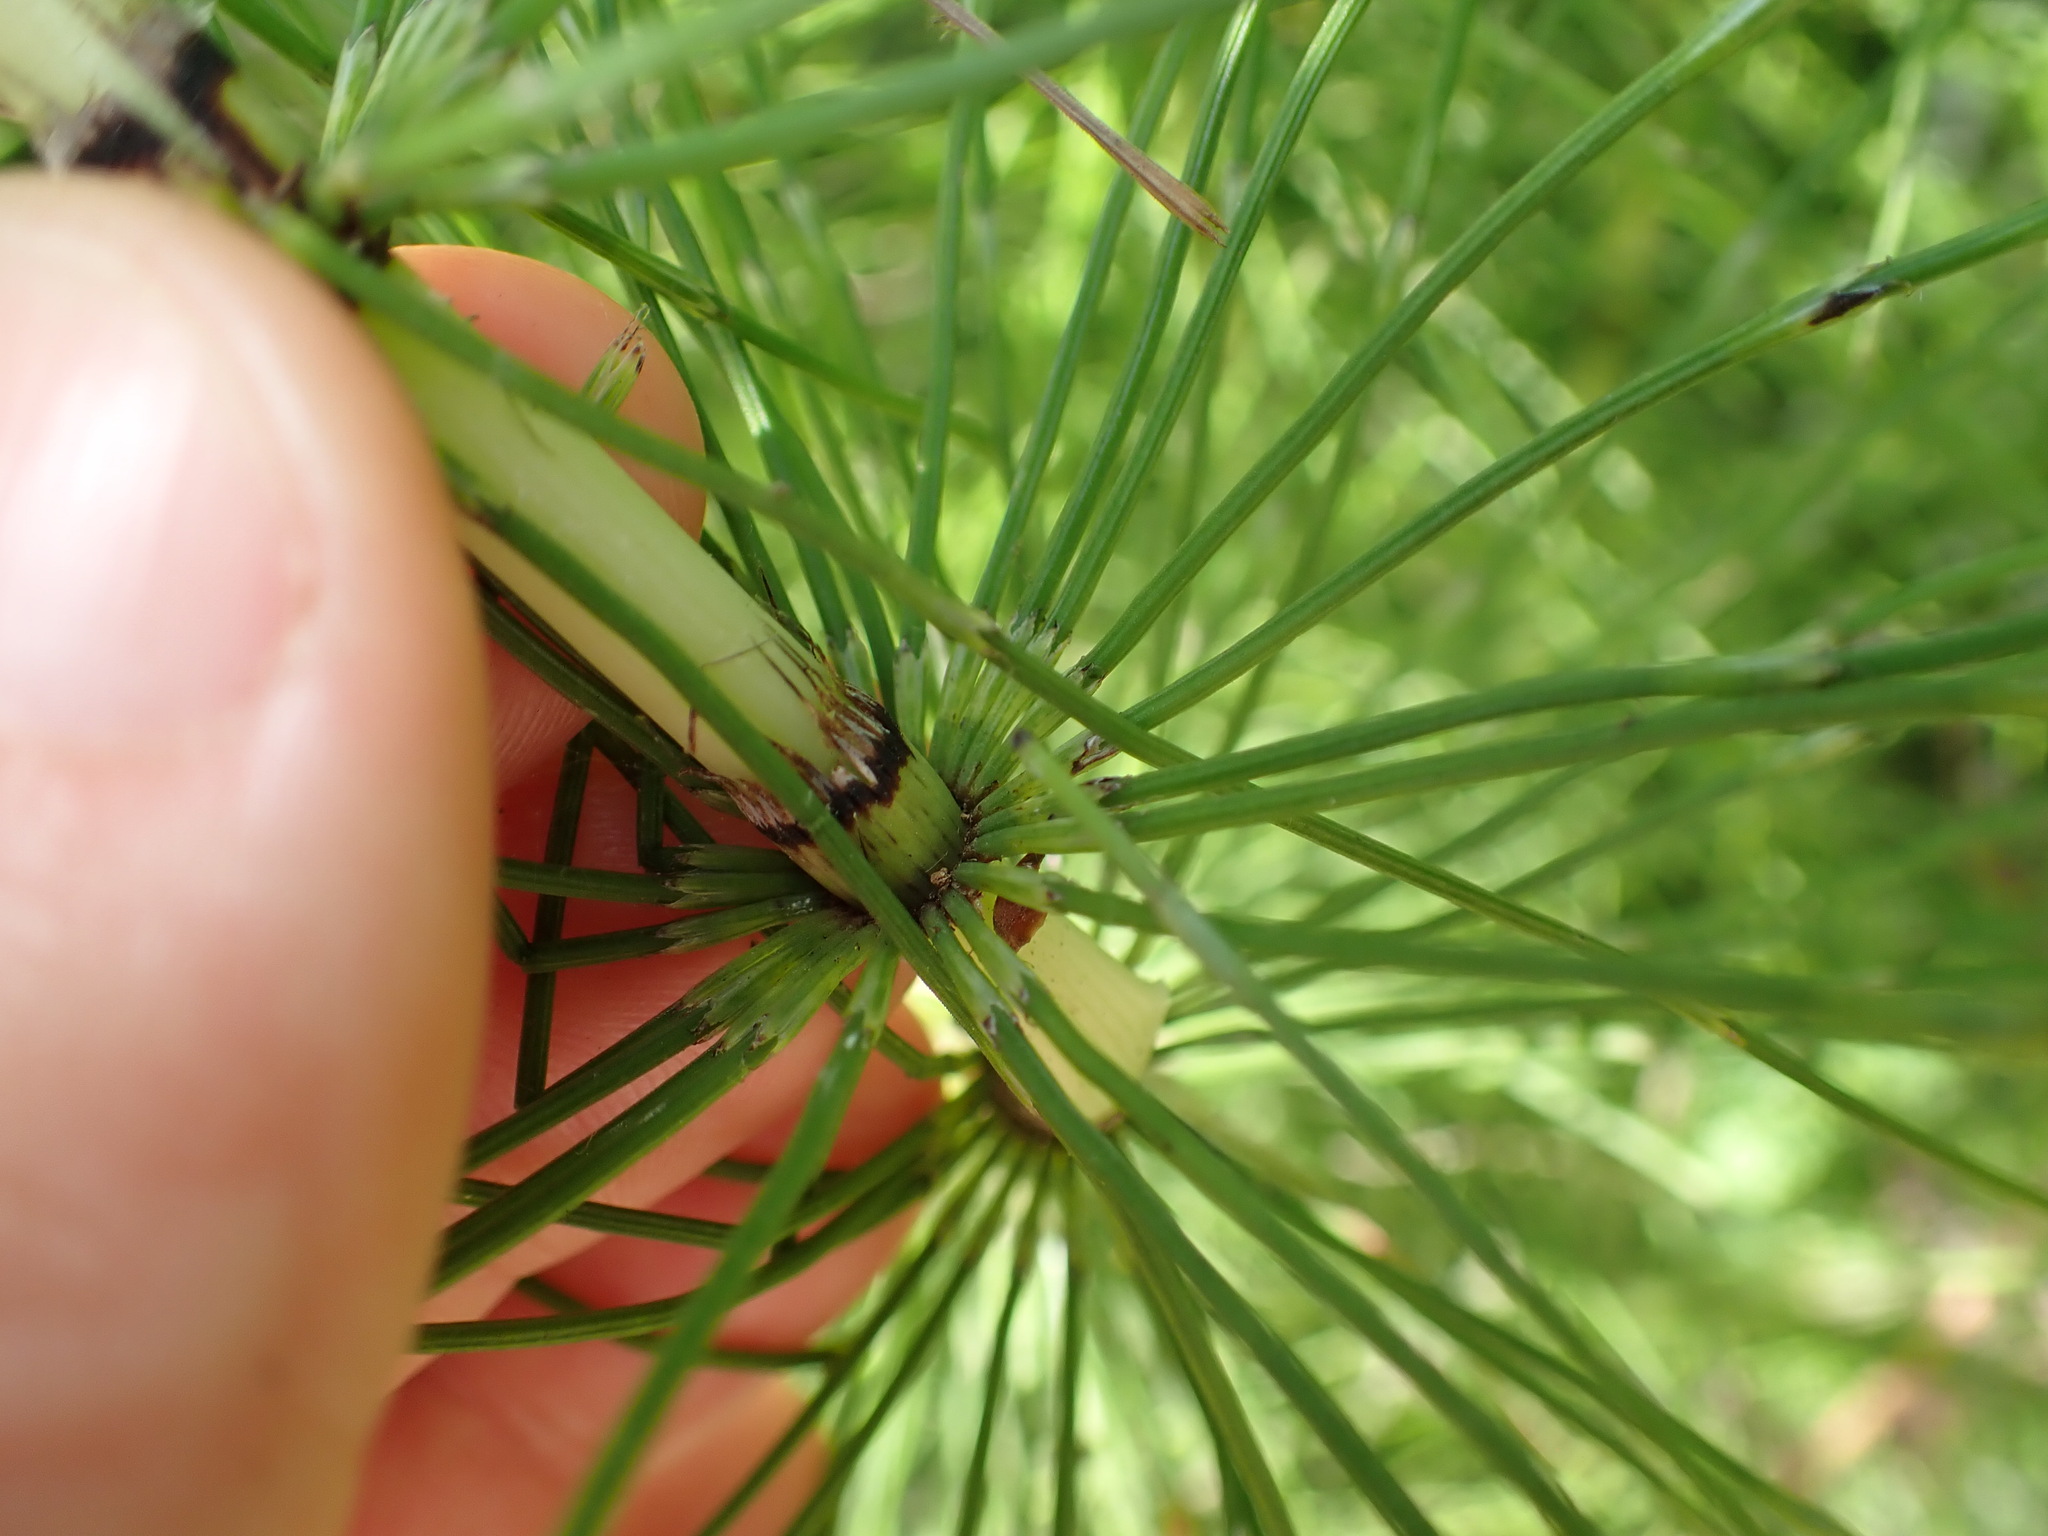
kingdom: Plantae
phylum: Tracheophyta
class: Polypodiopsida
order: Equisetales
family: Equisetaceae
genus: Equisetum
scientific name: Equisetum telmateia
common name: Great horsetail
